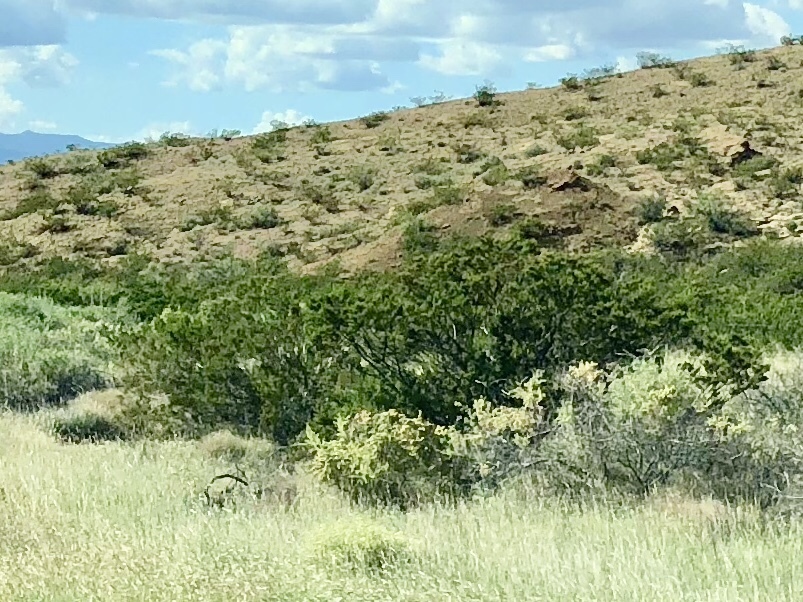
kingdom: Plantae
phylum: Tracheophyta
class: Magnoliopsida
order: Zygophyllales
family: Zygophyllaceae
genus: Larrea
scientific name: Larrea tridentata
